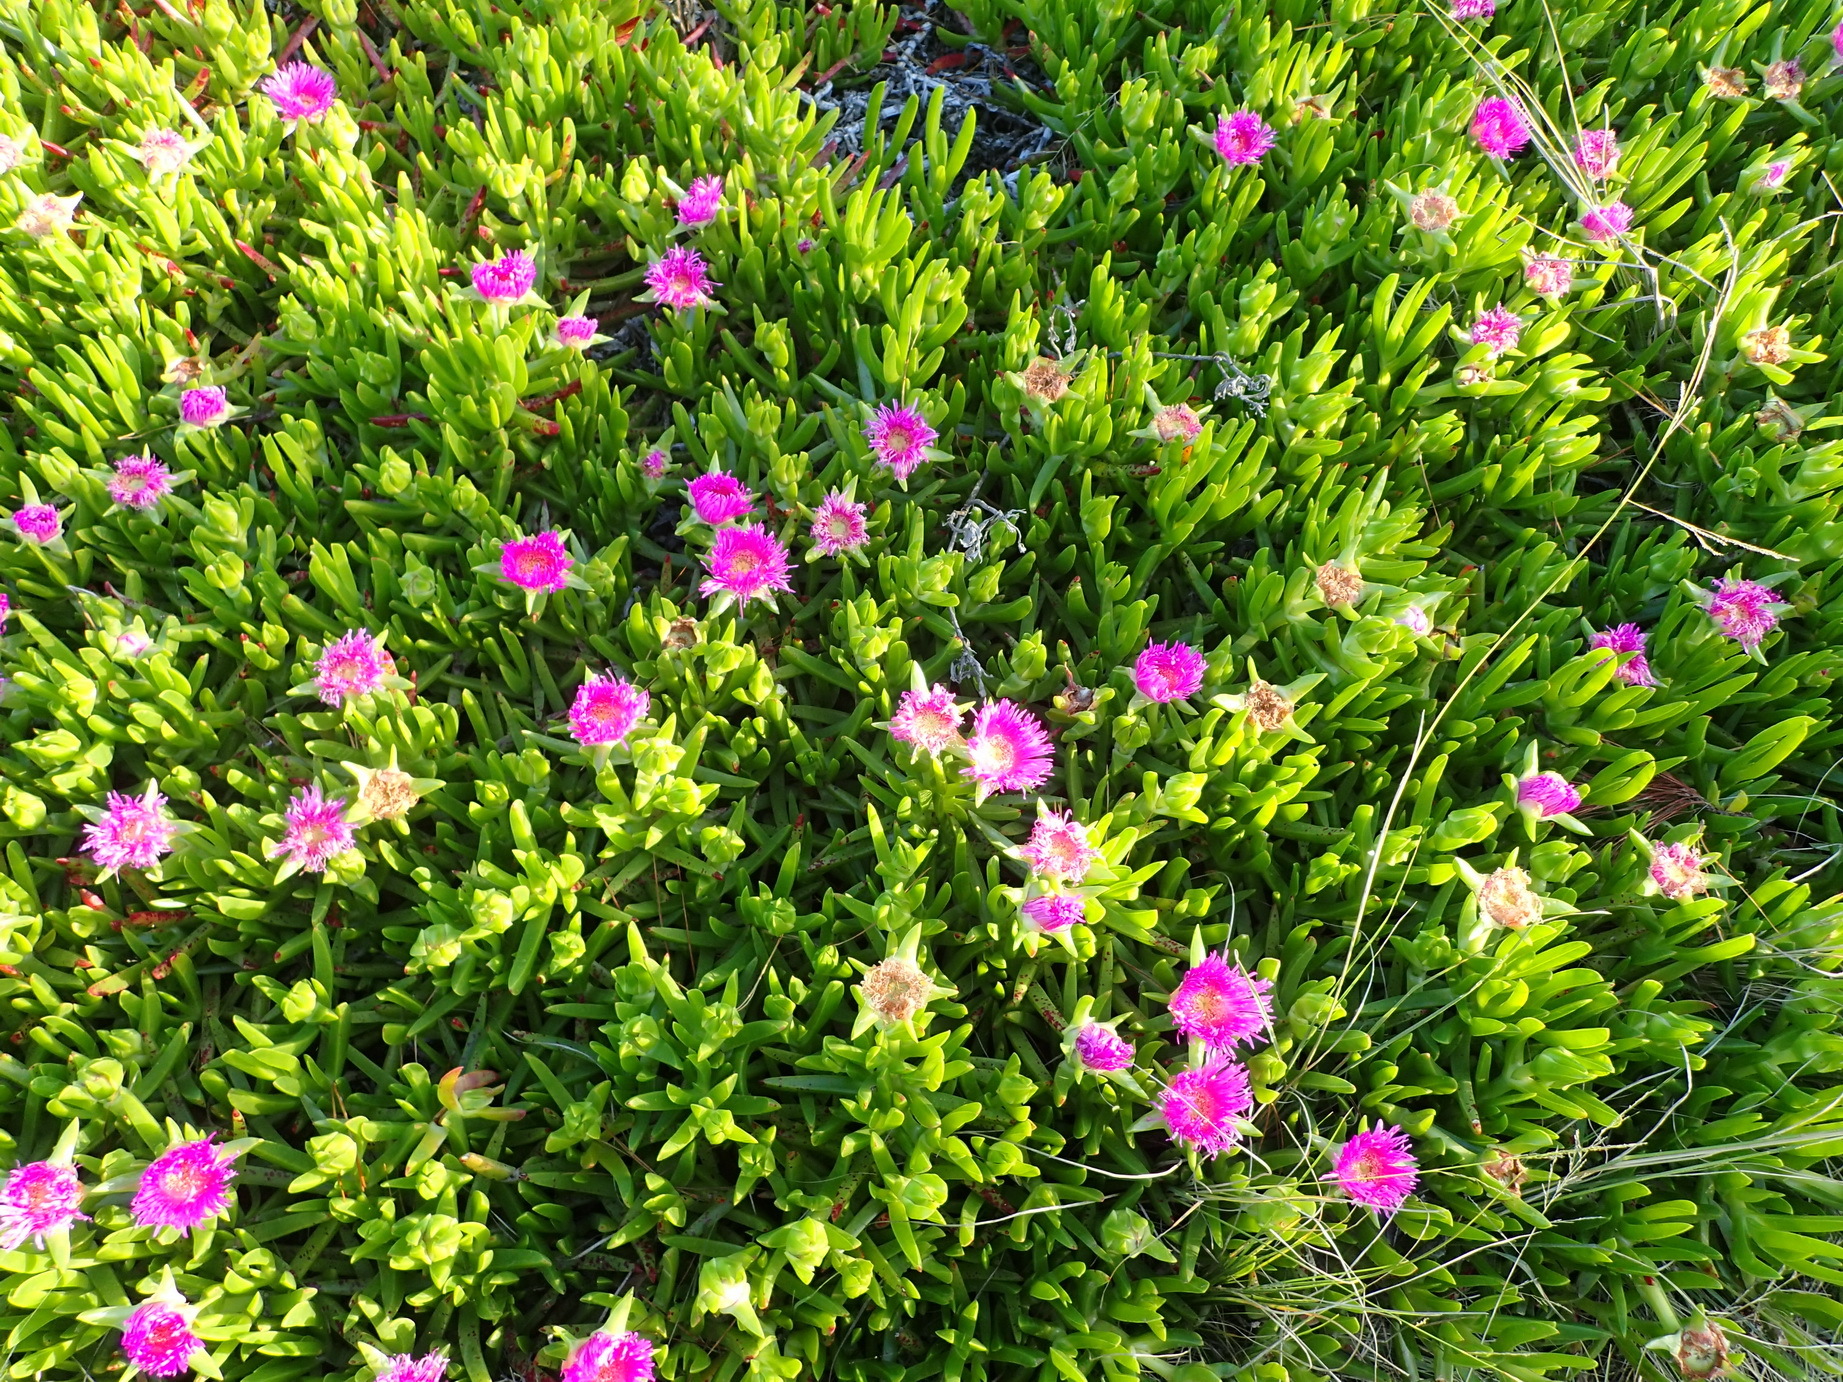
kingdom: Plantae
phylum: Tracheophyta
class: Magnoliopsida
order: Caryophyllales
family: Aizoaceae
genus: Carpobrotus
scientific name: Carpobrotus deliciosus
